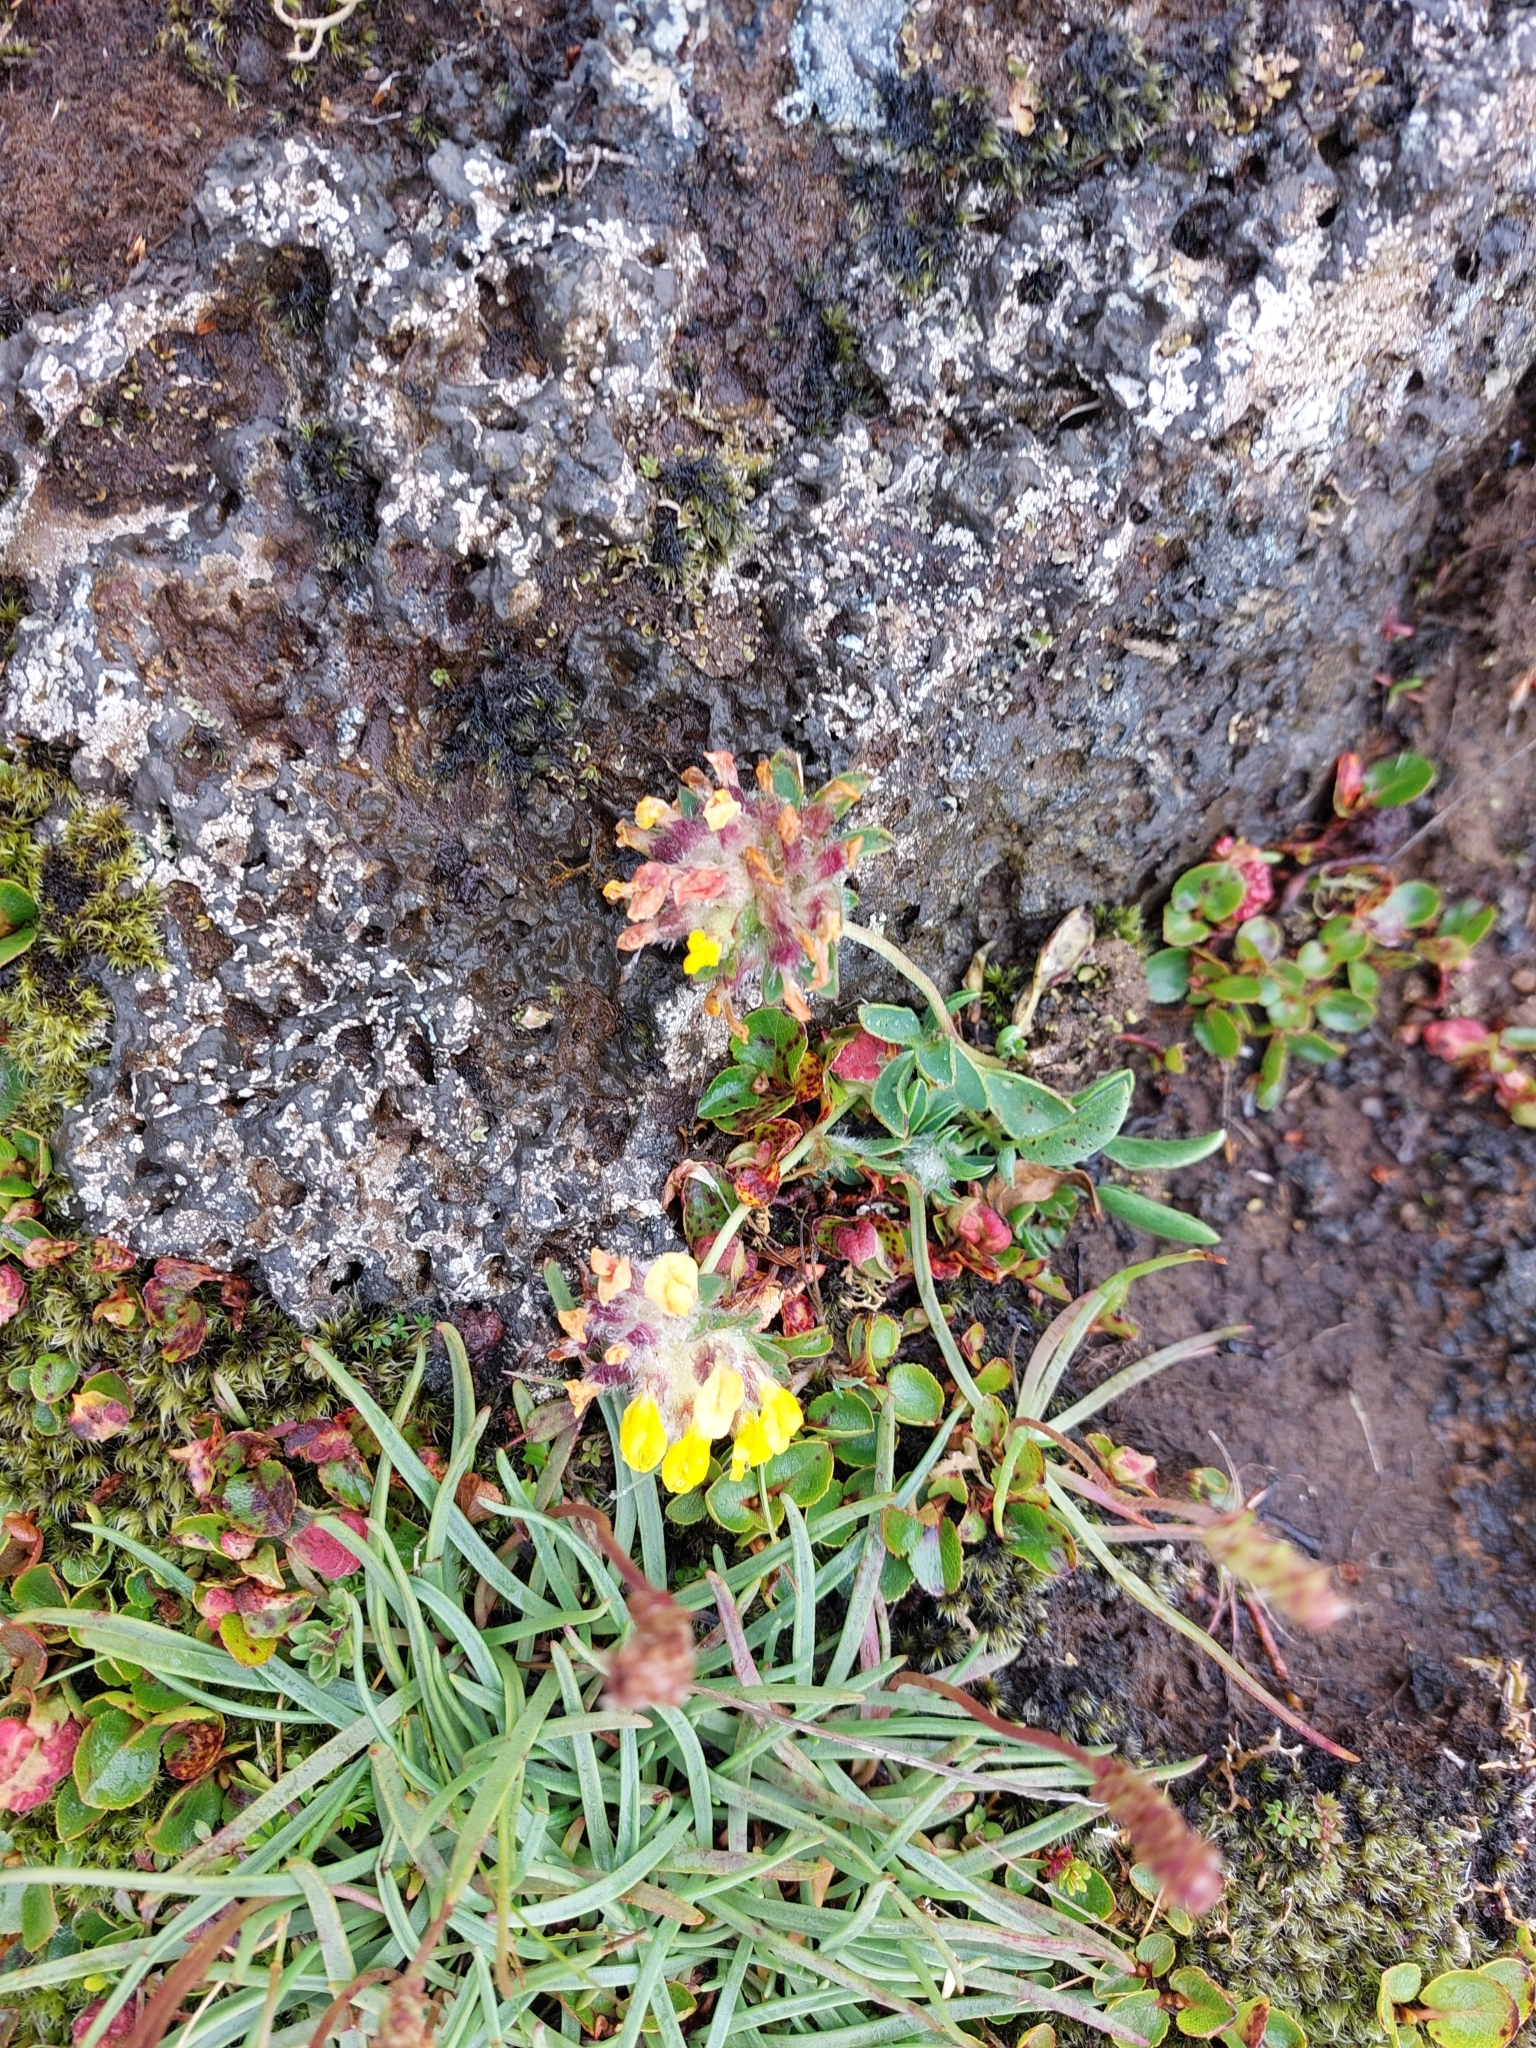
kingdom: Plantae
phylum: Tracheophyta
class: Magnoliopsida
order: Fabales
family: Fabaceae
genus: Anthyllis
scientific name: Anthyllis vulneraria
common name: Kidney vetch
